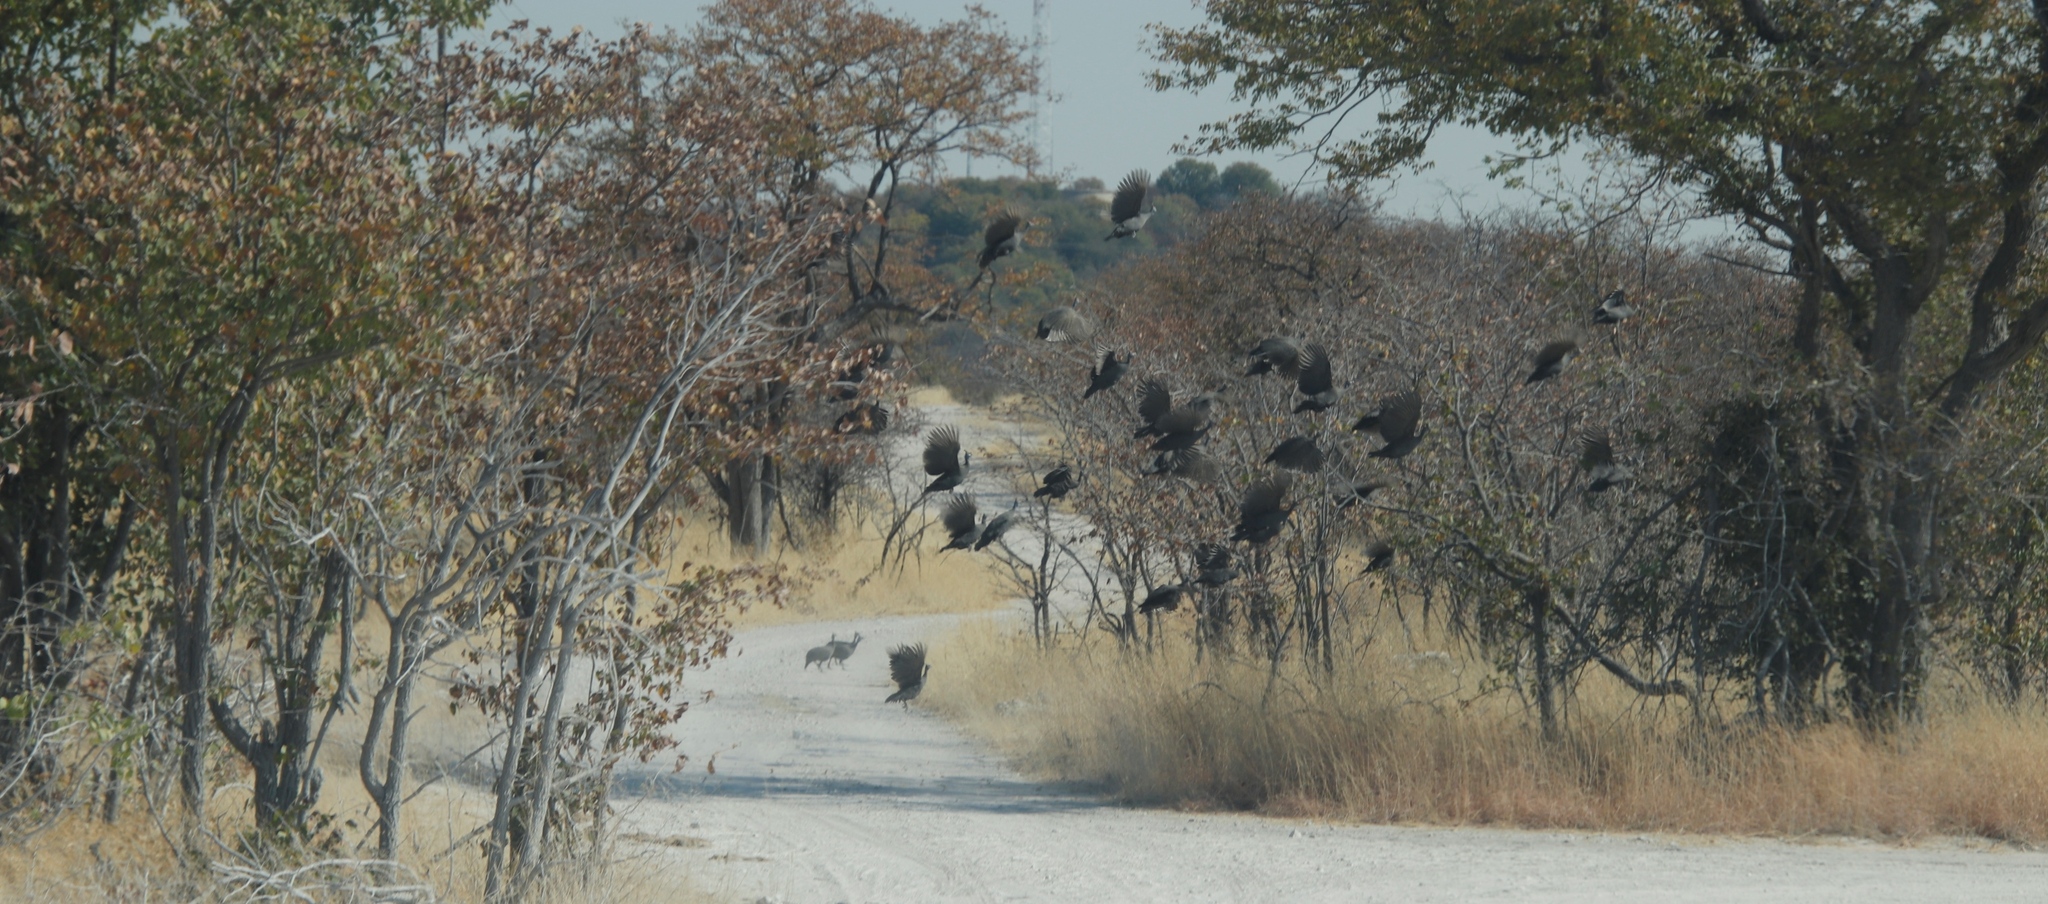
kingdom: Animalia
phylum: Chordata
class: Aves
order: Galliformes
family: Numididae
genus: Numida
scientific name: Numida meleagris
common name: Helmeted guineafowl
